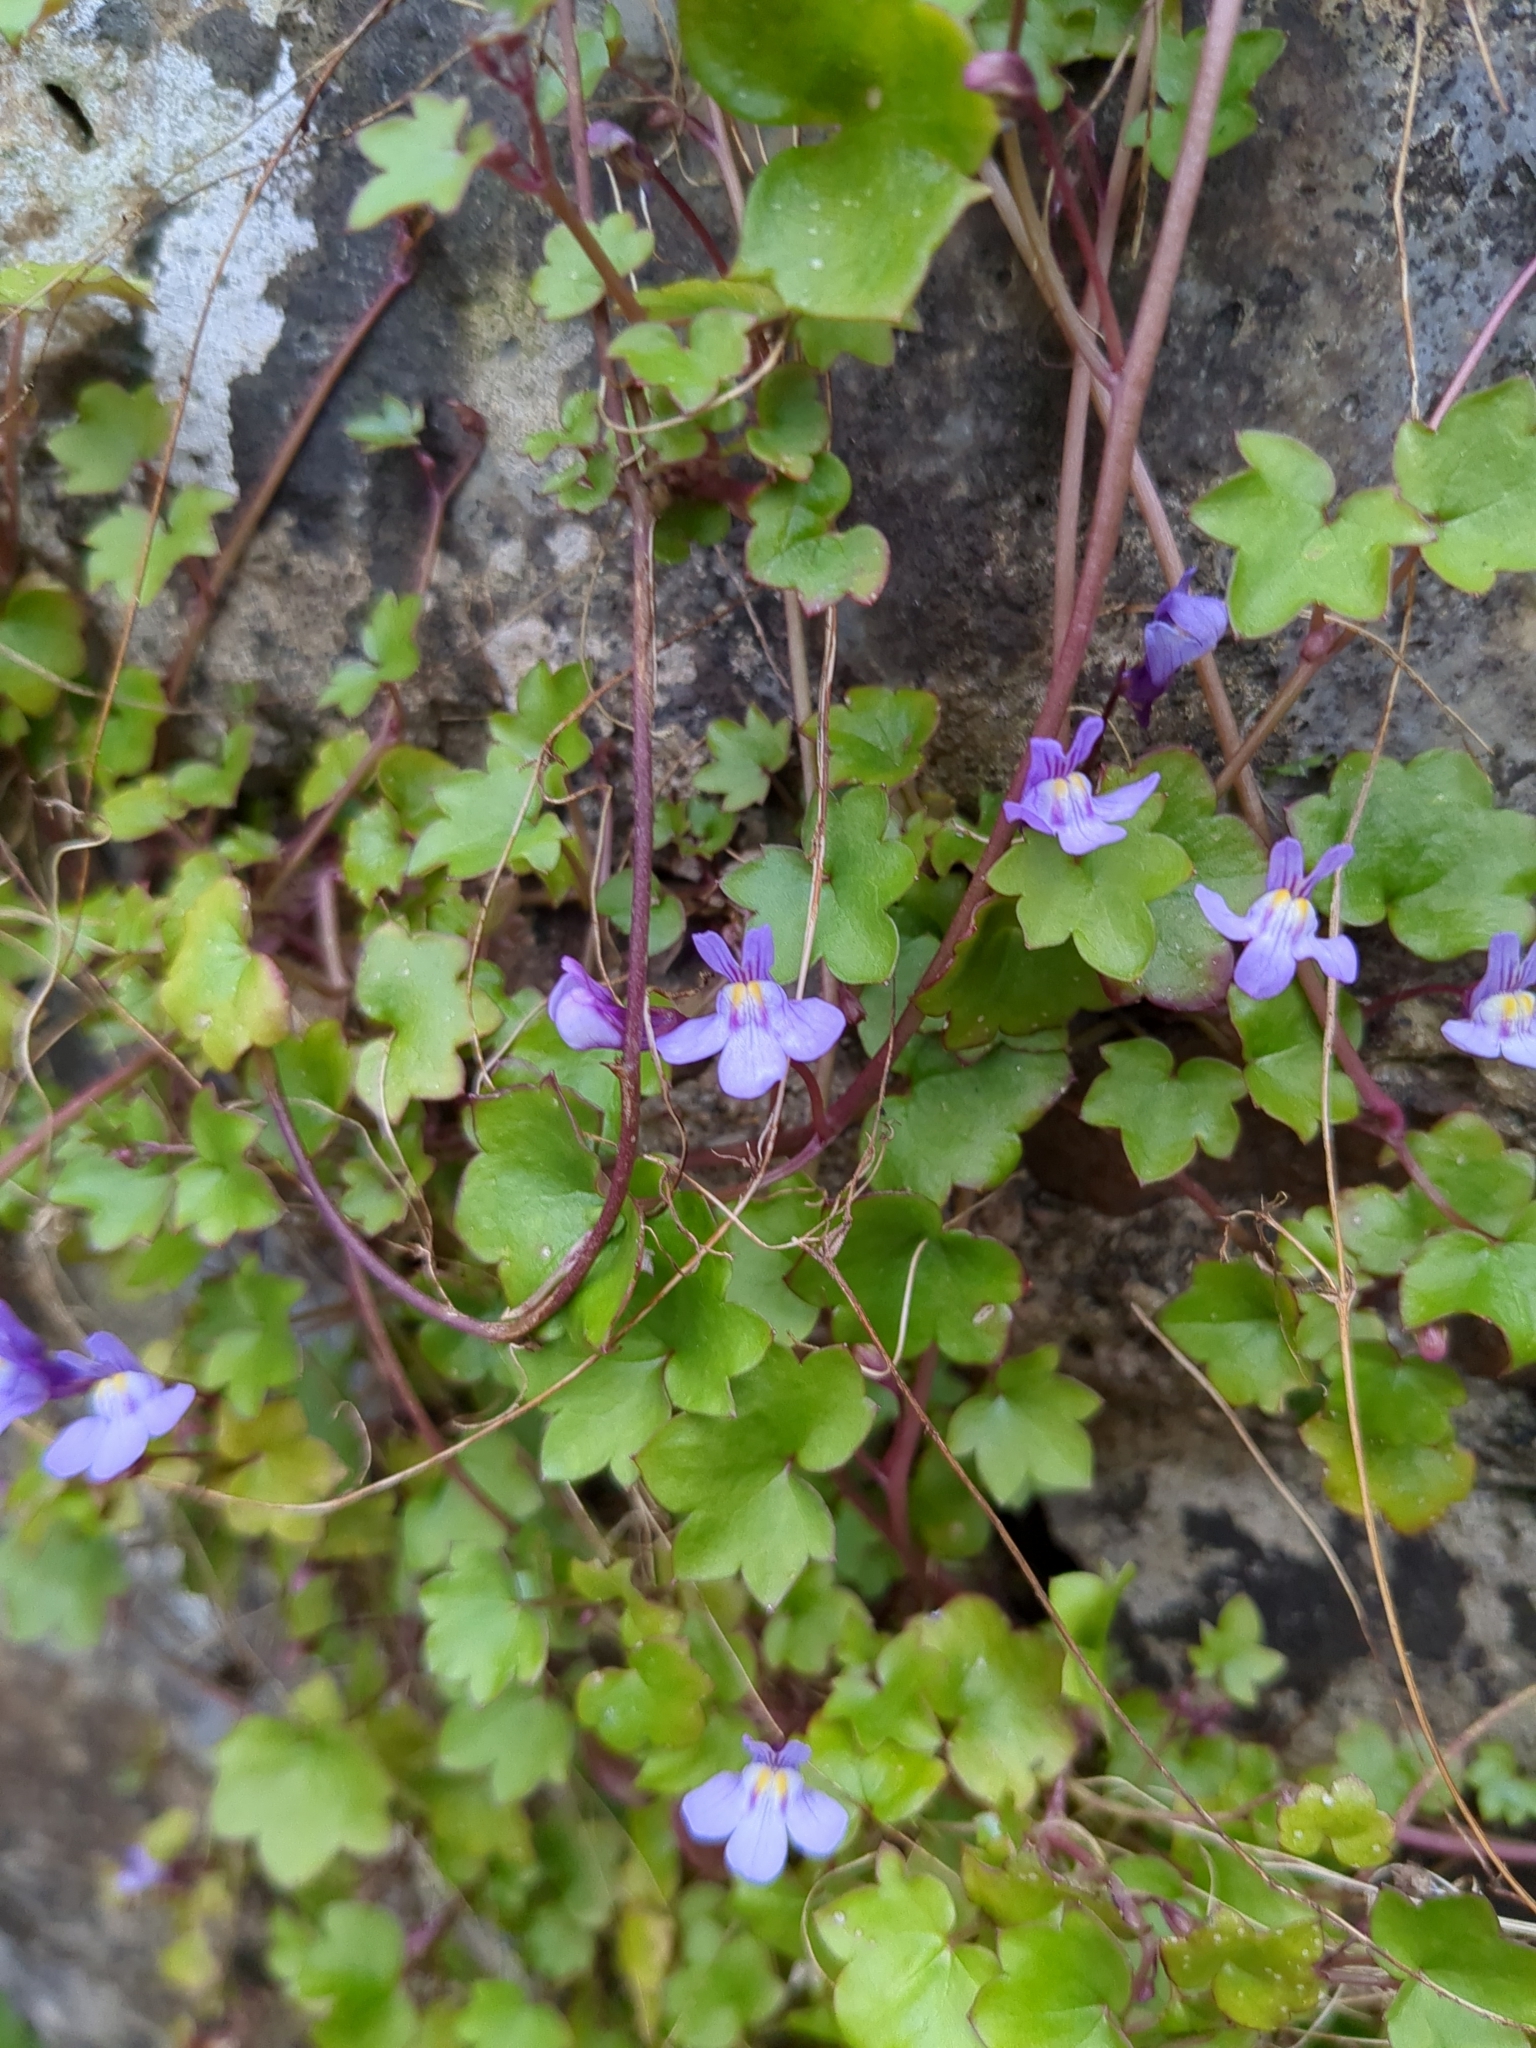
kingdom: Plantae
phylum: Tracheophyta
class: Magnoliopsida
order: Lamiales
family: Plantaginaceae
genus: Cymbalaria
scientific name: Cymbalaria muralis
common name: Ivy-leaved toadflax
